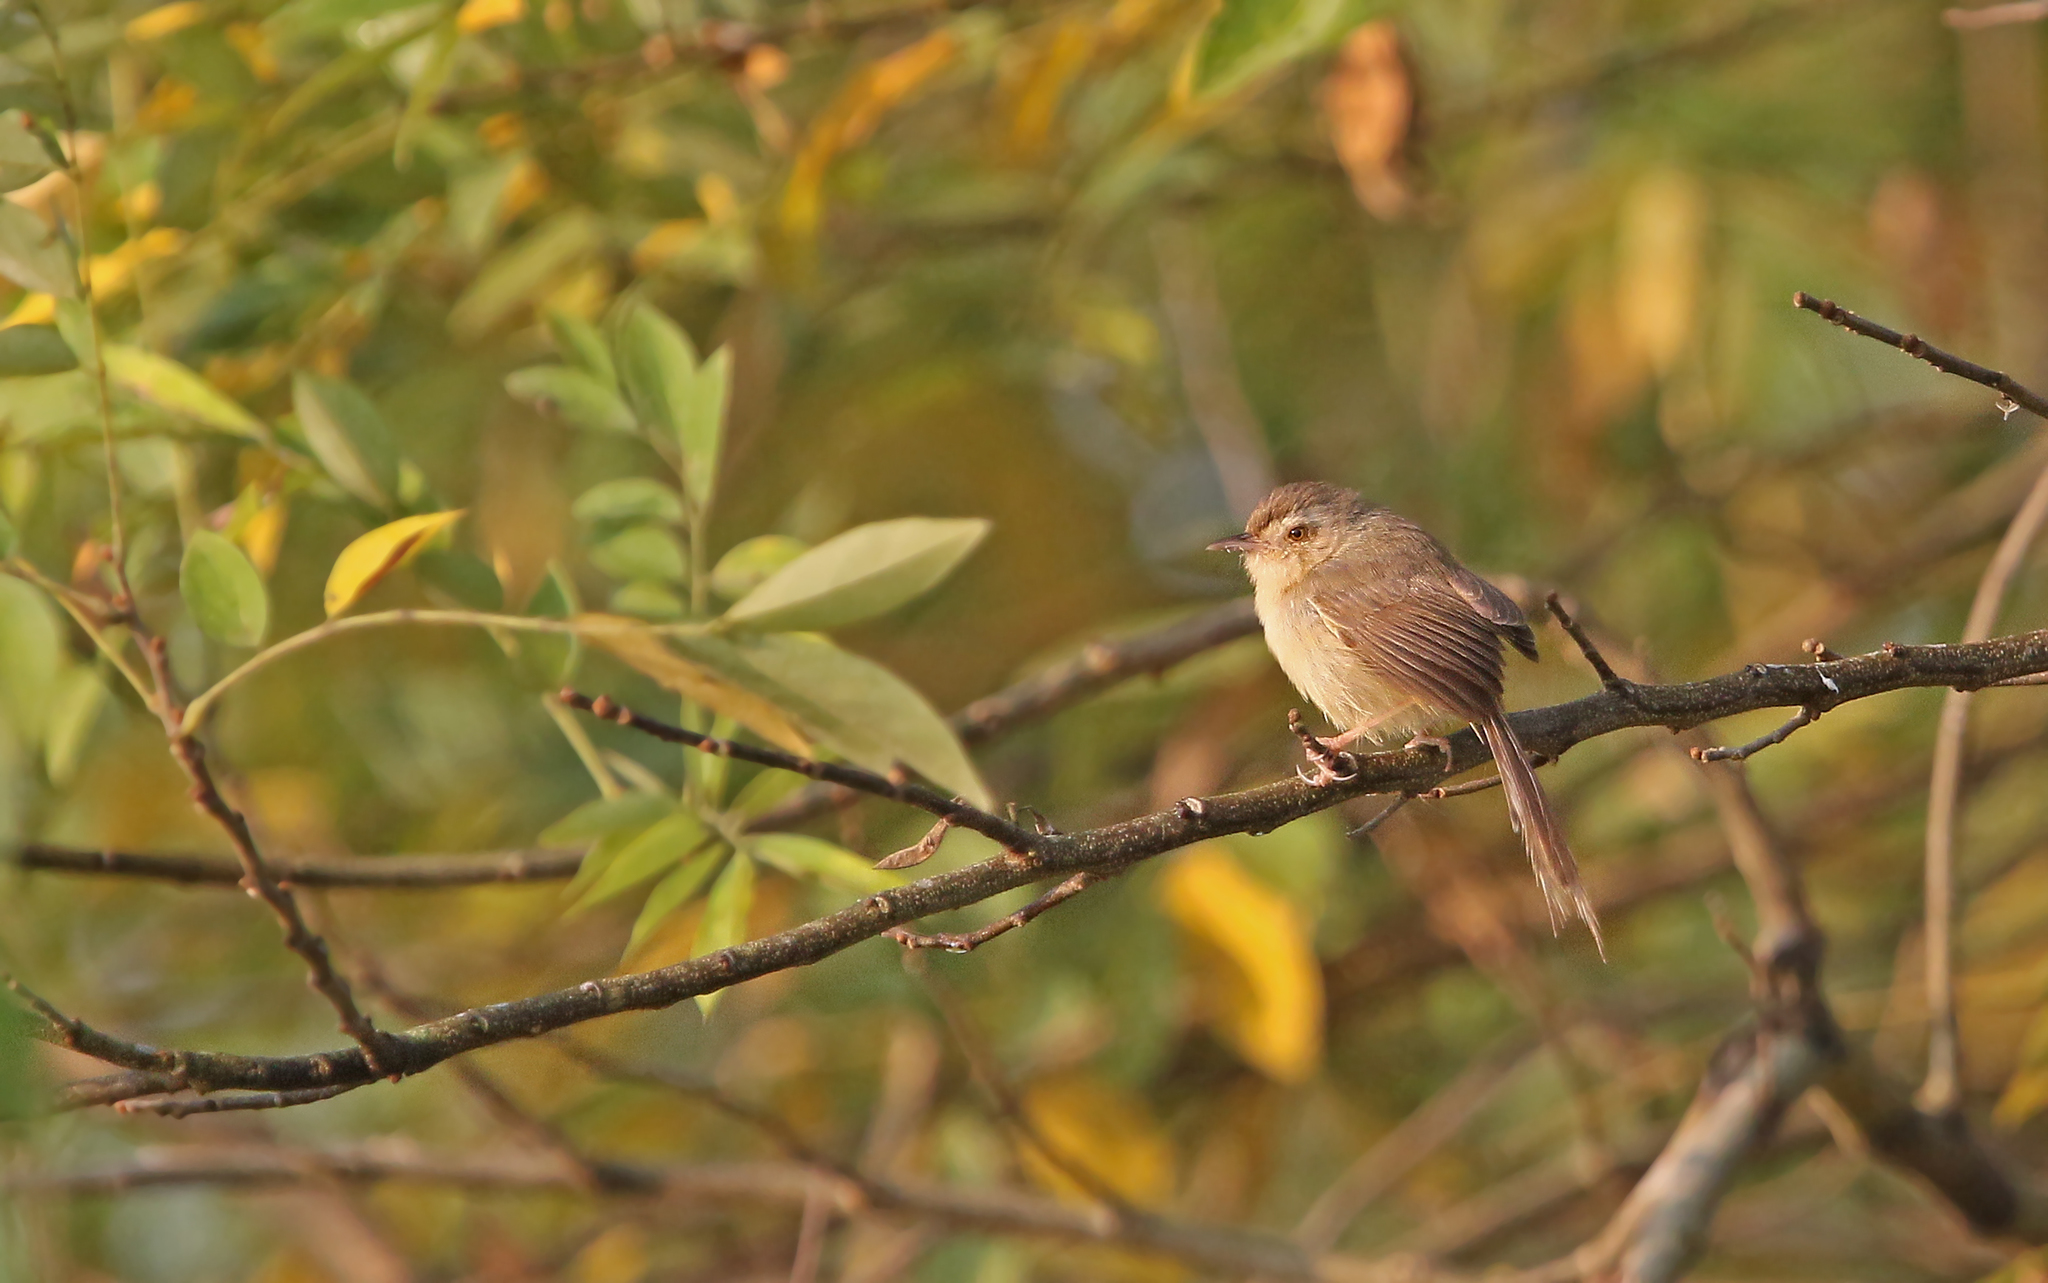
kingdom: Animalia
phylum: Chordata
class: Aves
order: Passeriformes
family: Cisticolidae
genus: Prinia
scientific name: Prinia inornata
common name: Plain prinia
